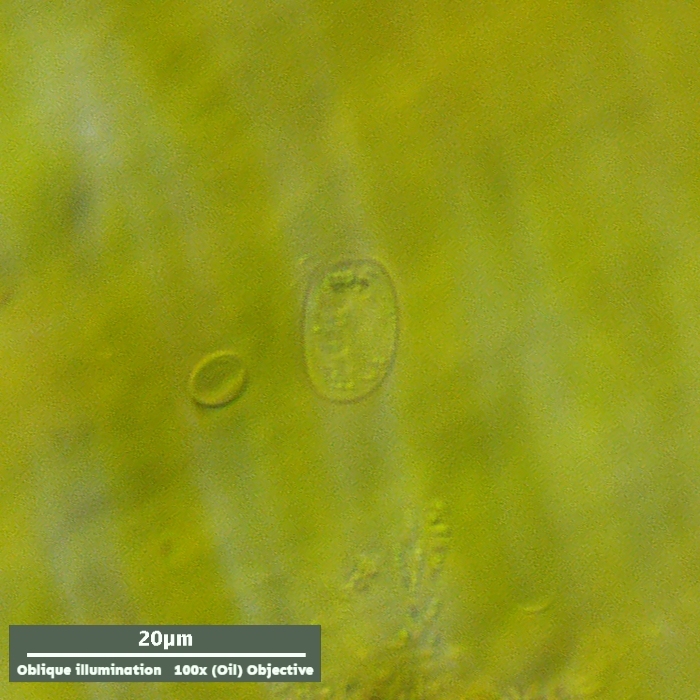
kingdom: Chromista
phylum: Cryptophyta
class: Cryptophyceae
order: Cryptomonadales
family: Cryptomonadaceae
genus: Goniomonas
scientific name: Goniomonas truncata
